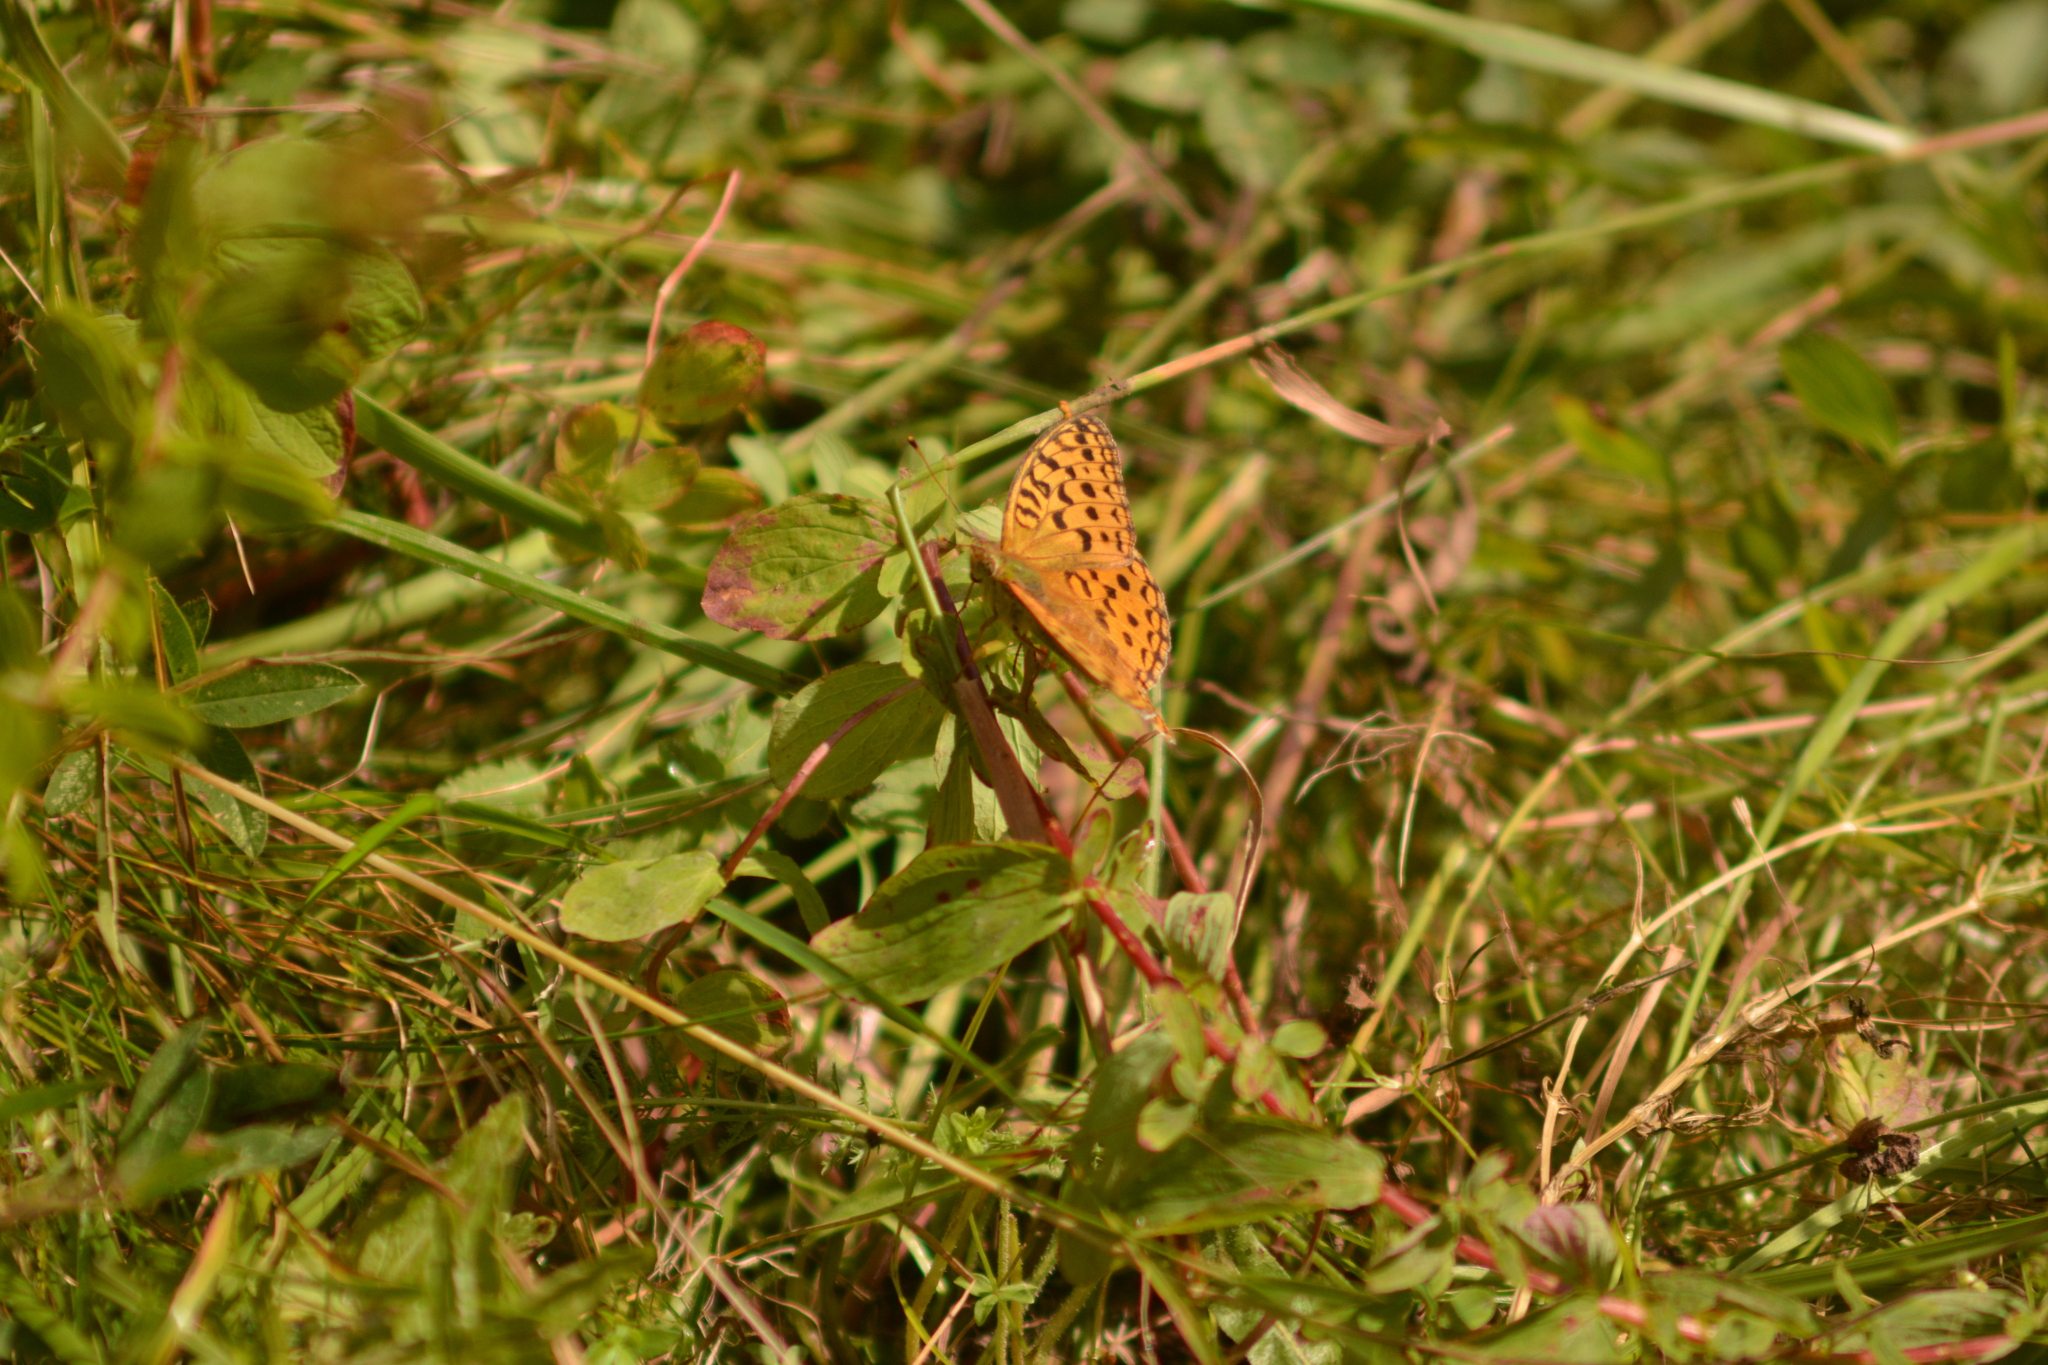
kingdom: Animalia
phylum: Arthropoda
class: Insecta
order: Lepidoptera
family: Nymphalidae
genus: Fabriciana
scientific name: Fabriciana adippe
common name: High brown fritillary
